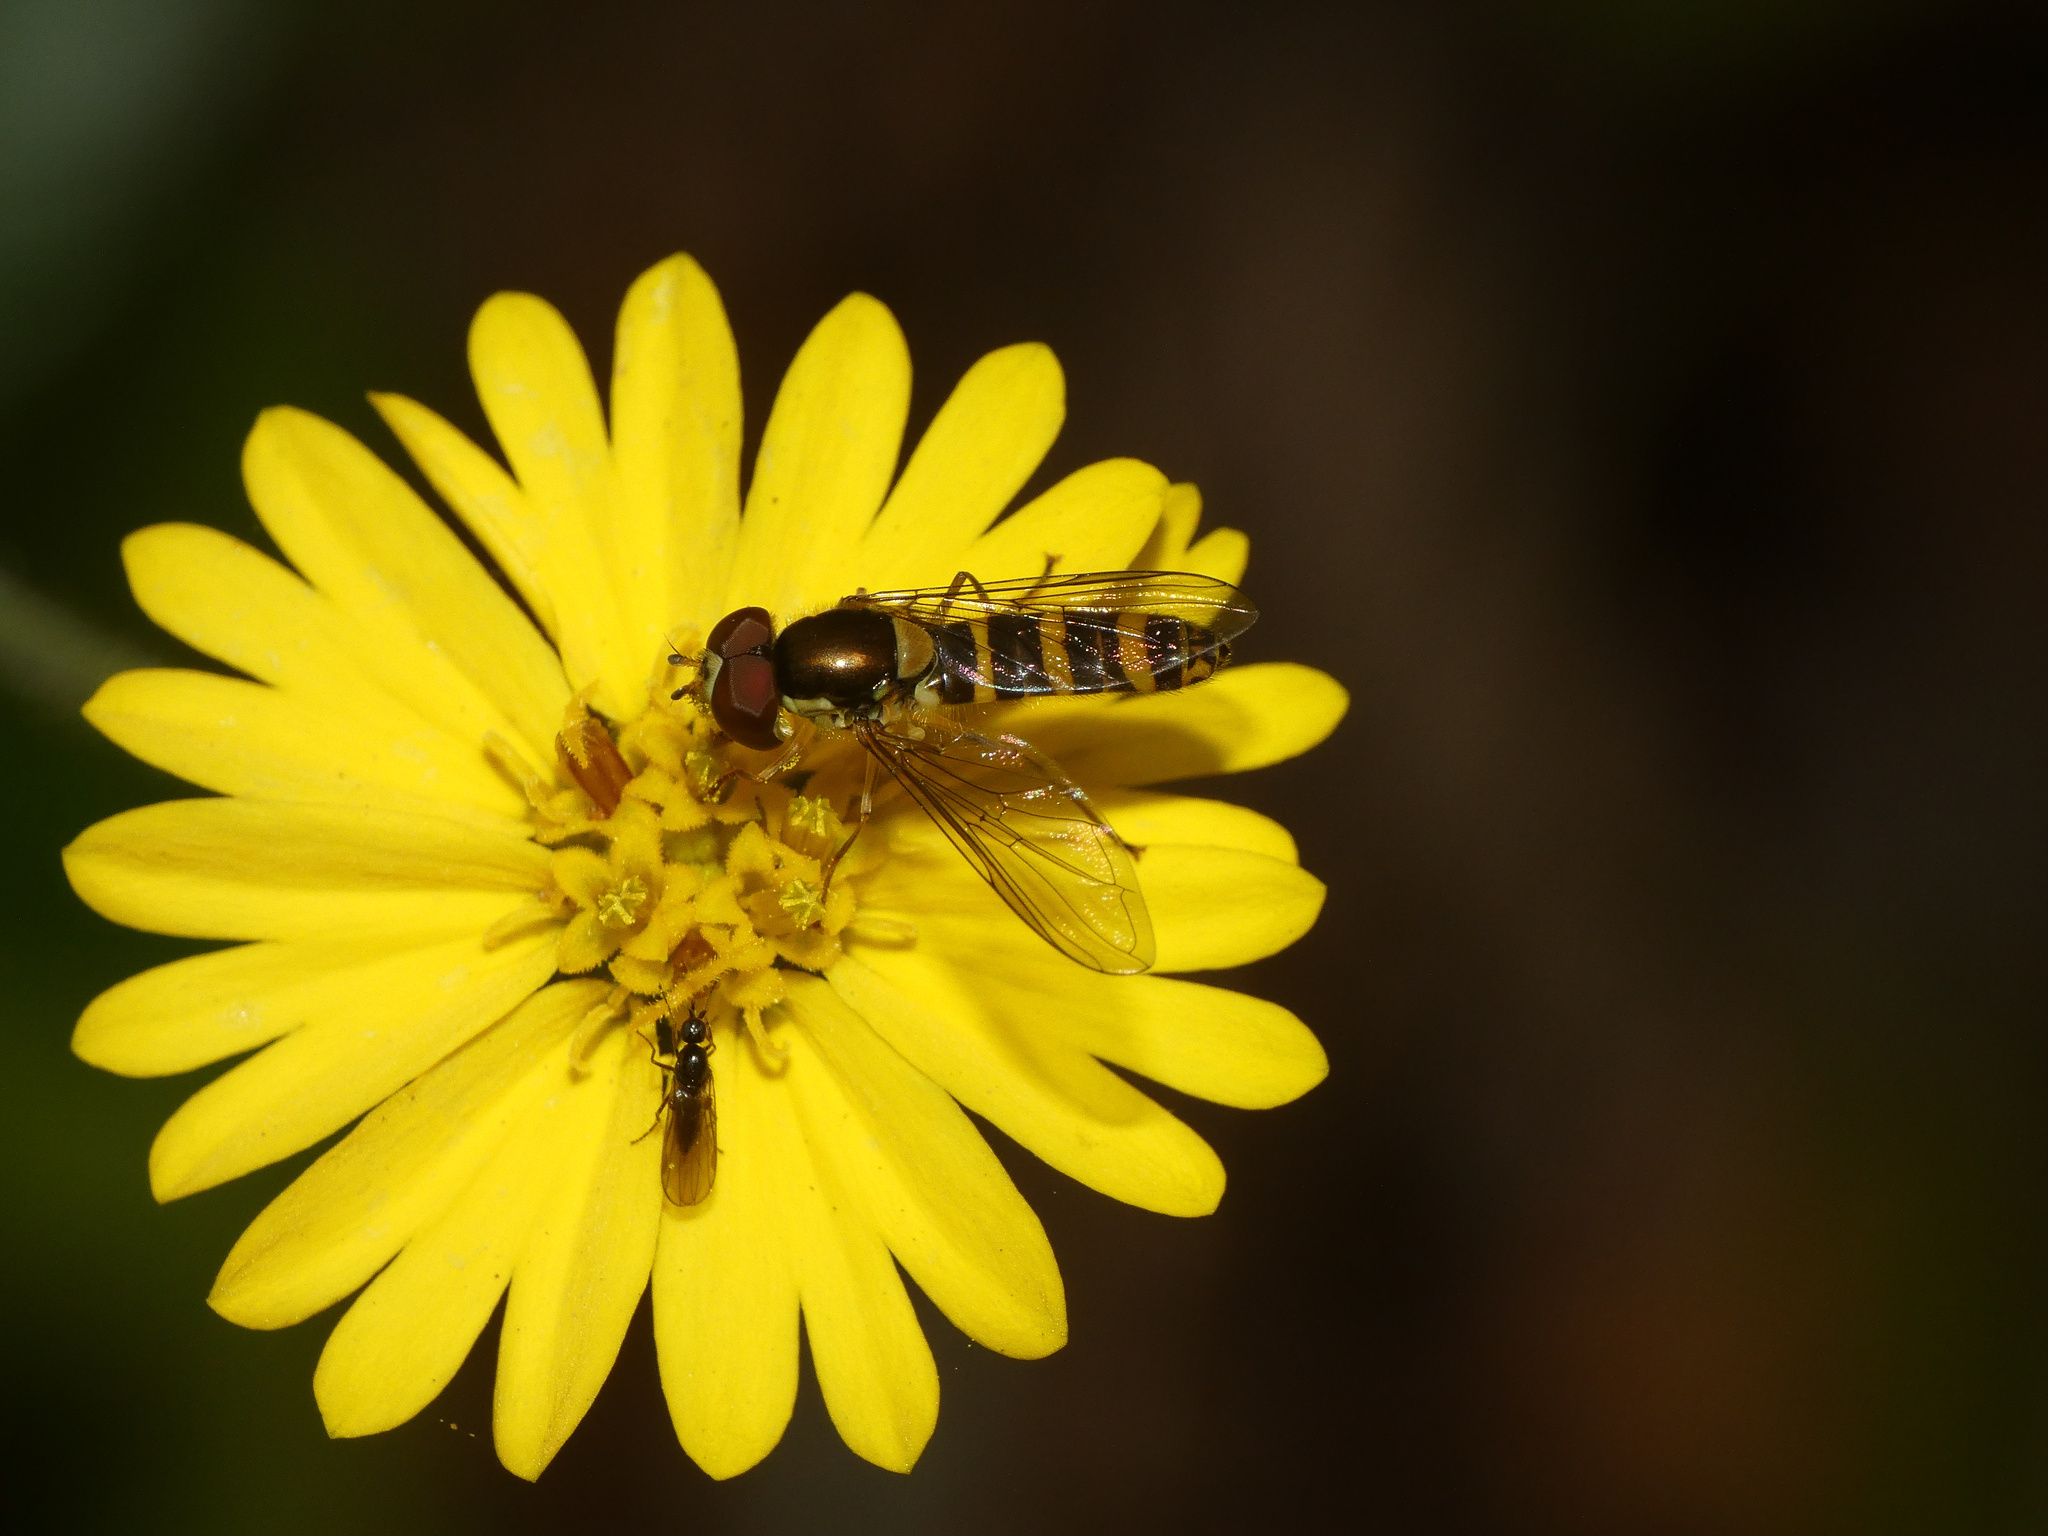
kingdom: Animalia
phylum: Arthropoda
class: Insecta
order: Diptera
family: Syrphidae
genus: Fazia
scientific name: Fazia micrura
